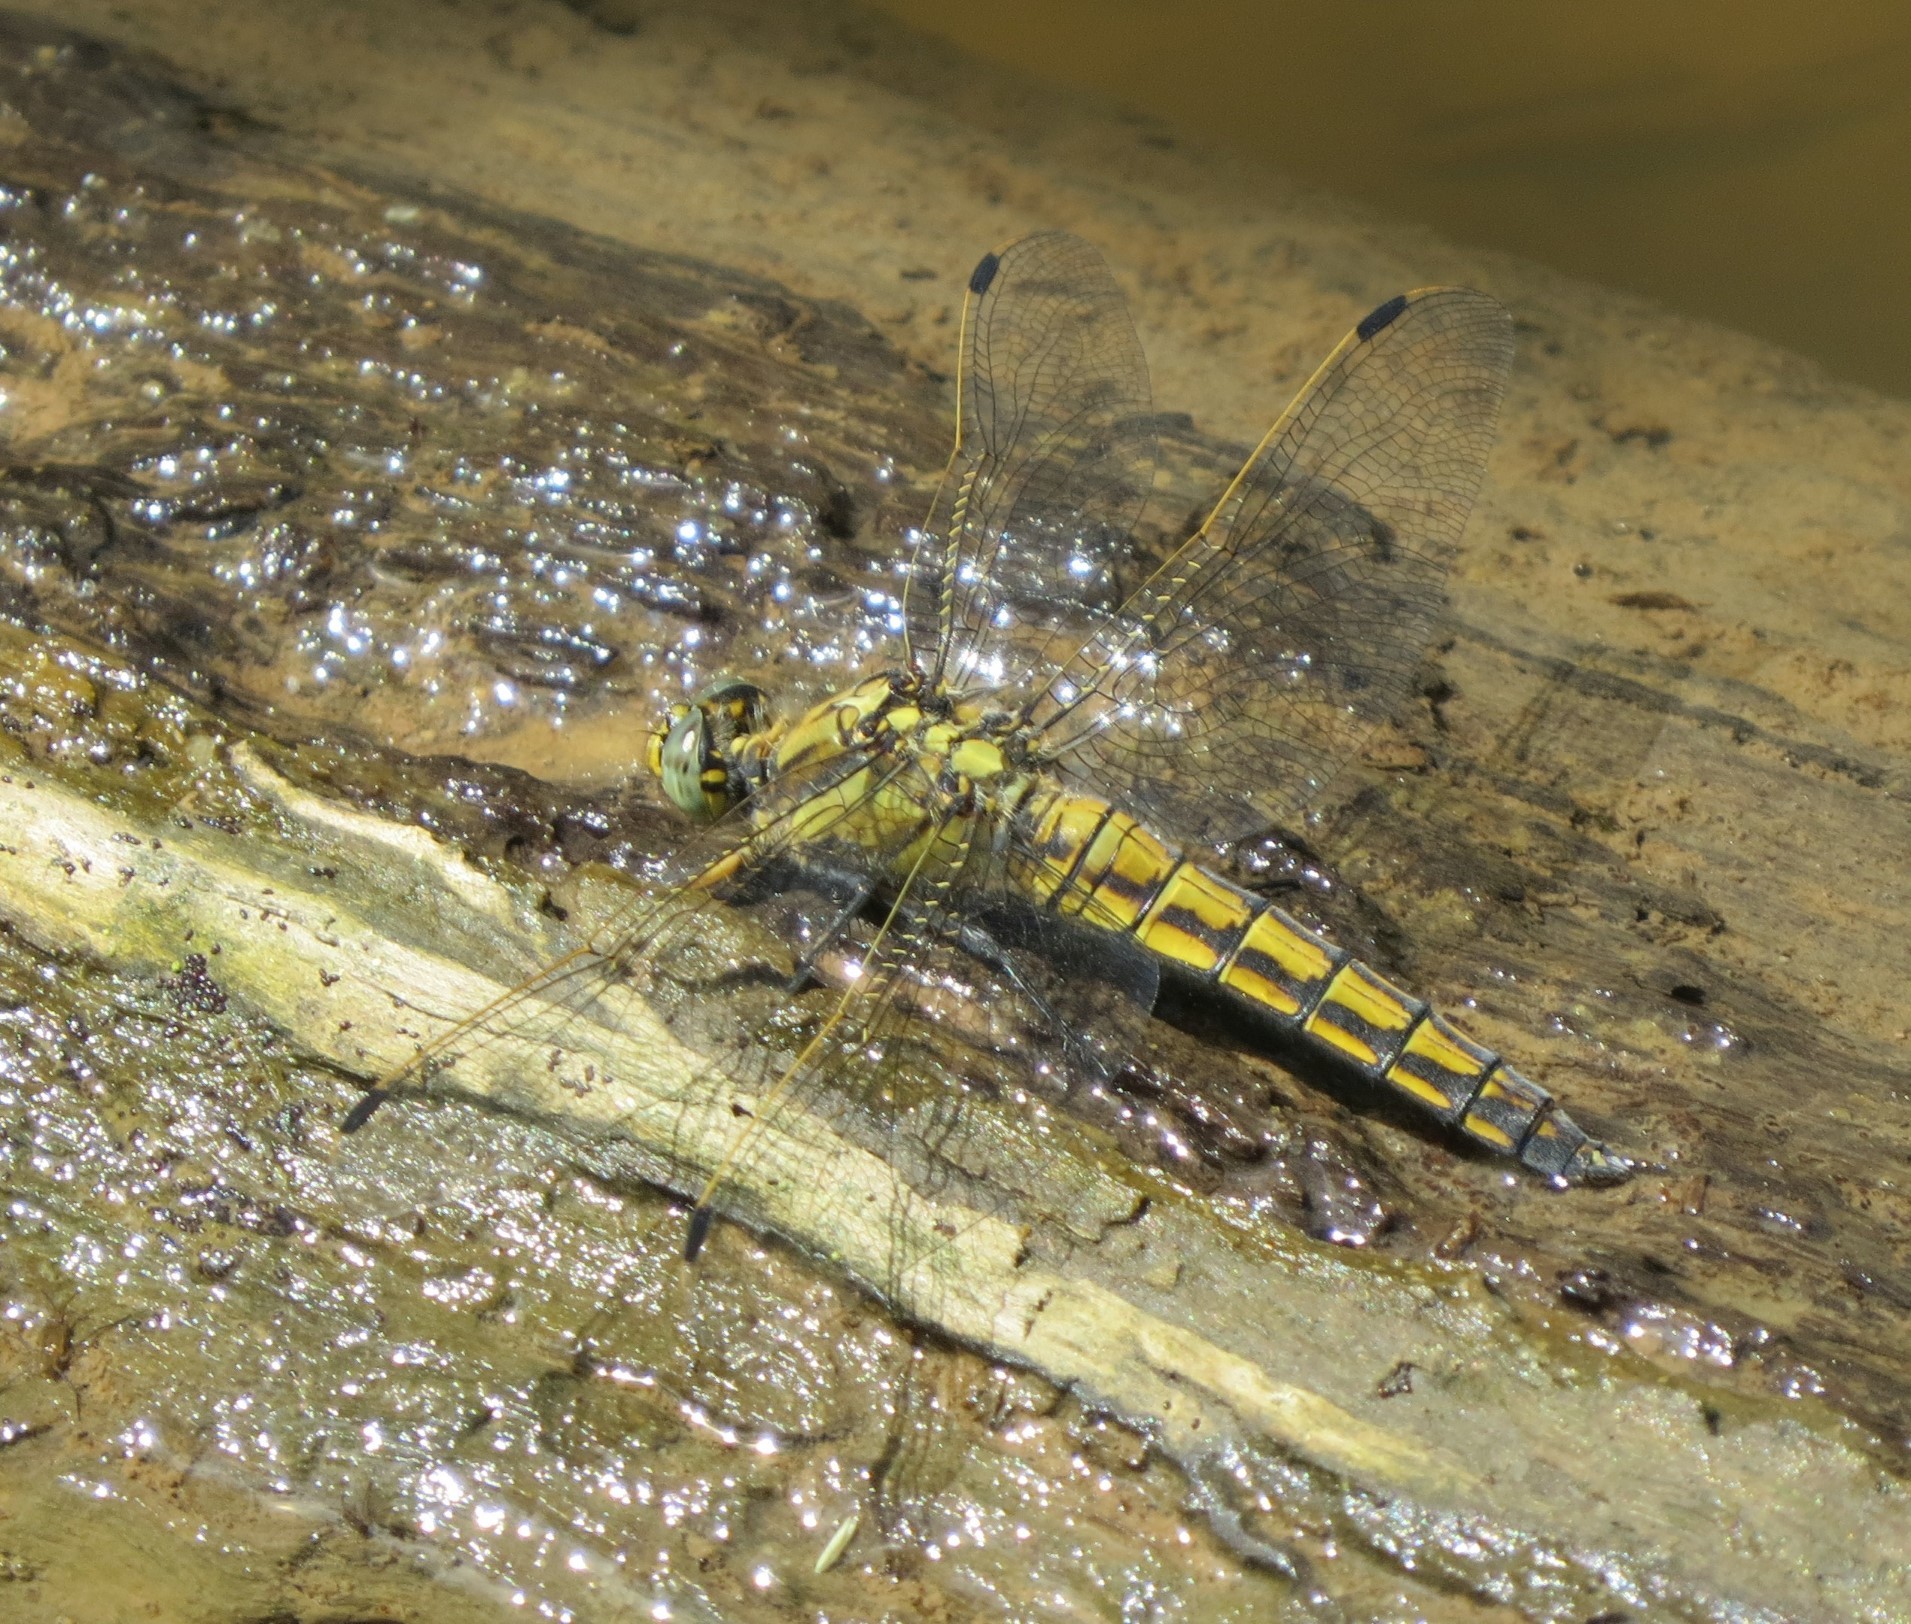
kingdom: Animalia
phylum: Arthropoda
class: Insecta
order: Odonata
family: Libellulidae
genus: Orthetrum
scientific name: Orthetrum cancellatum
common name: Black-tailed skimmer
